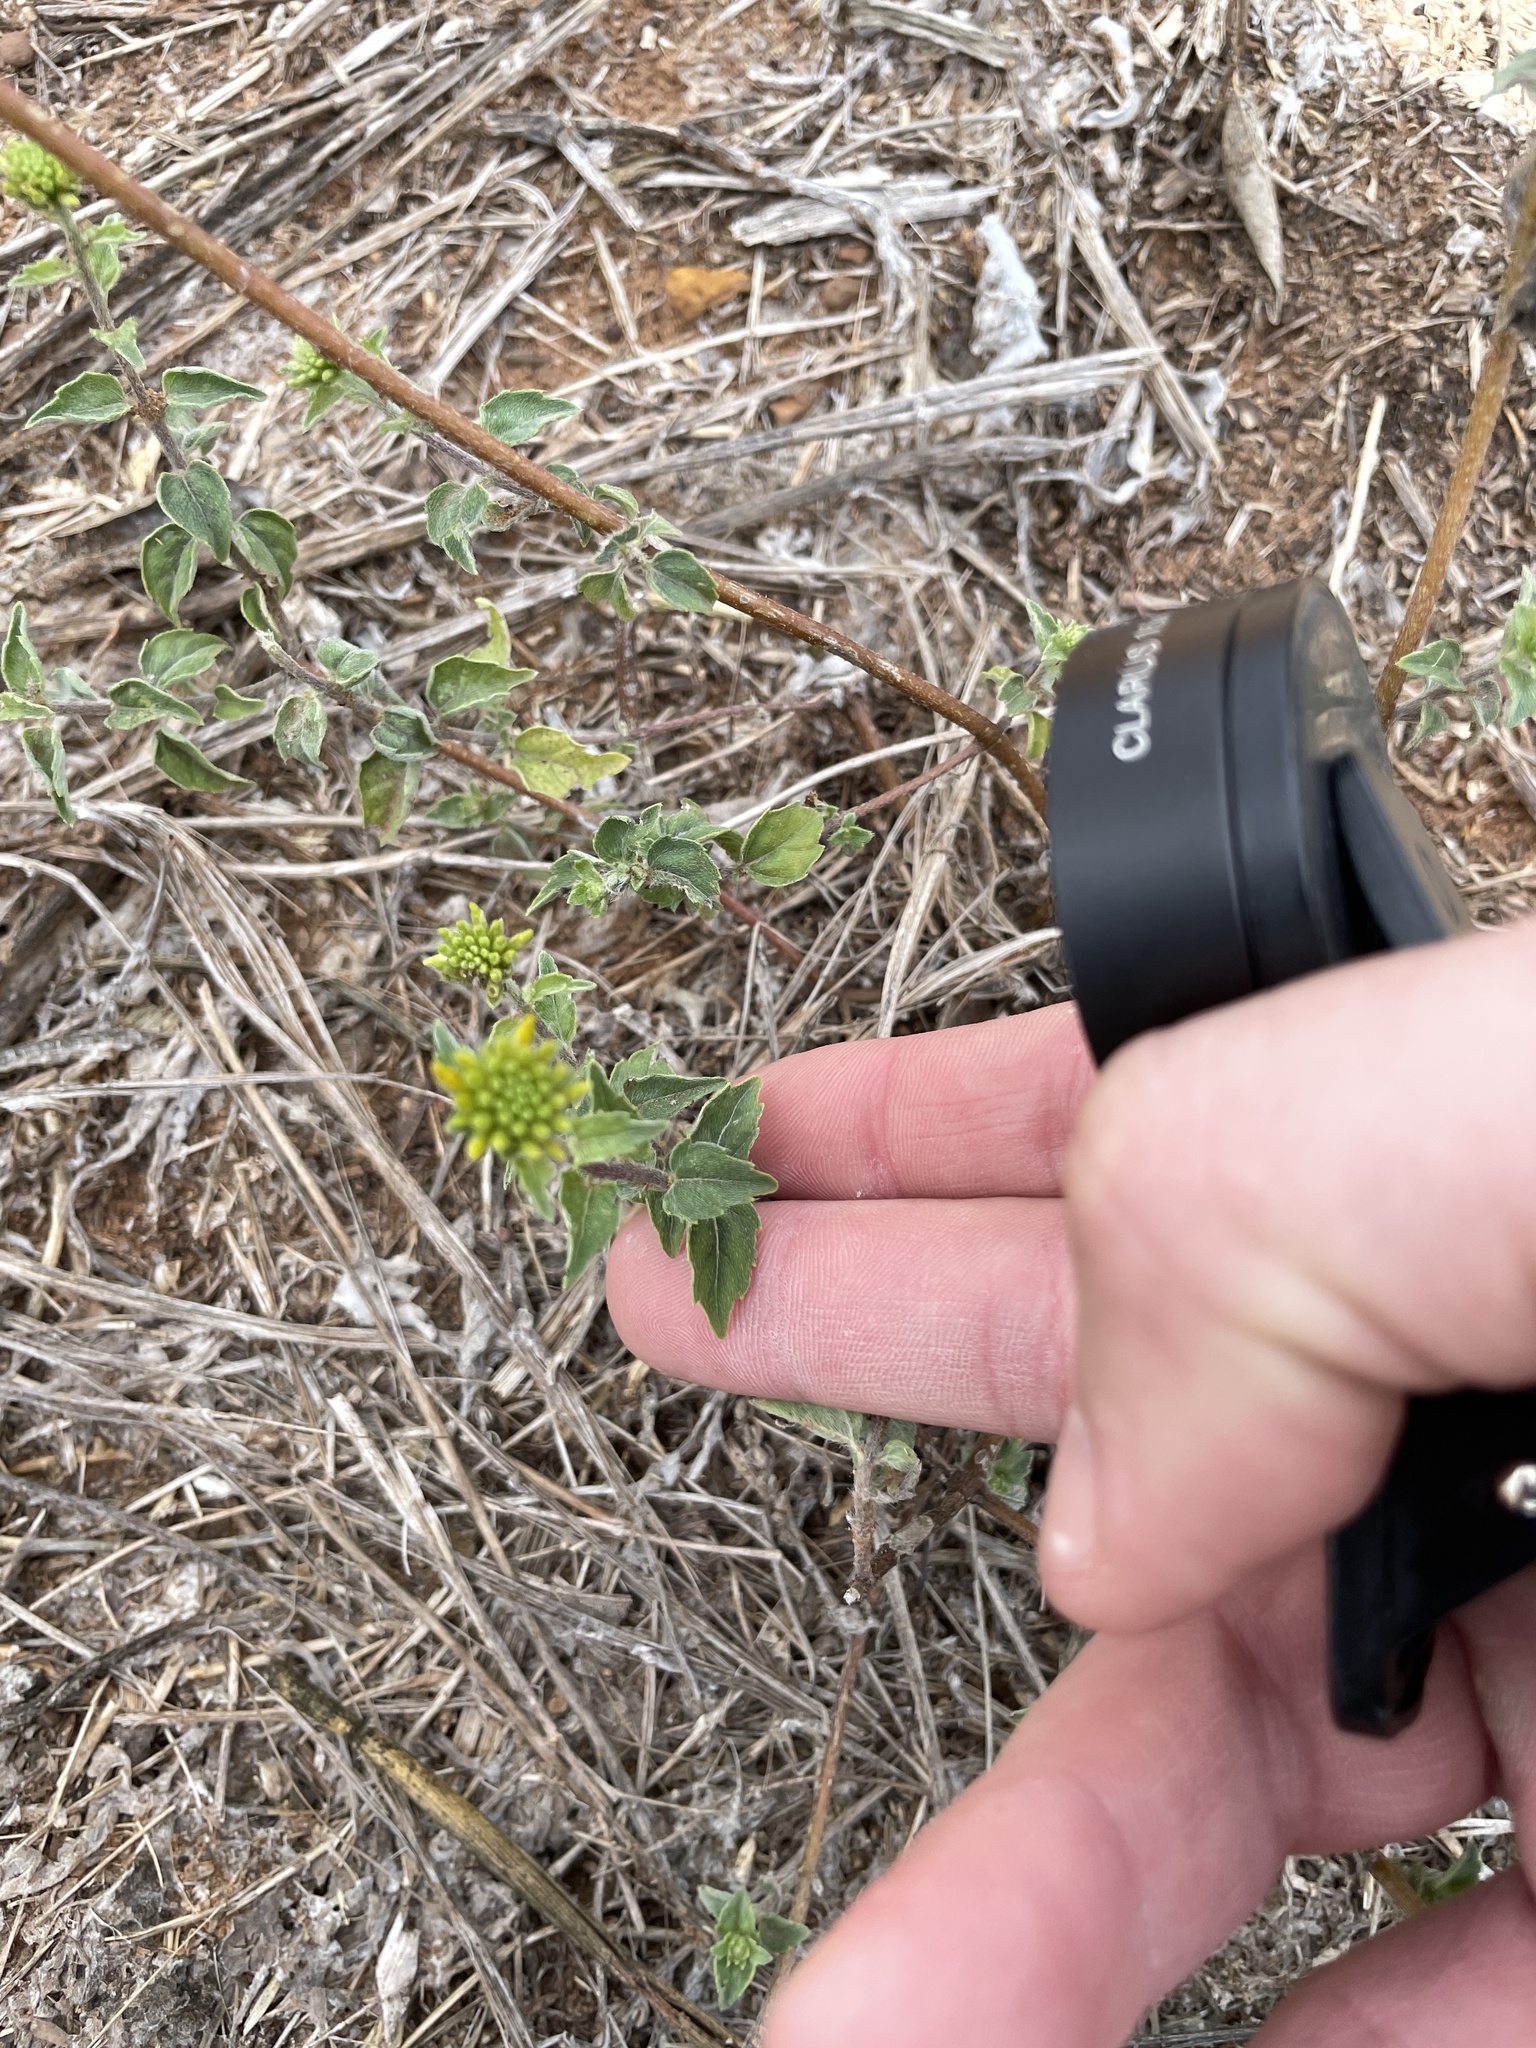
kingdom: Plantae
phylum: Tracheophyta
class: Magnoliopsida
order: Asterales
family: Asteraceae
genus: Sclerocarpus
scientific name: Sclerocarpus uniserialis
